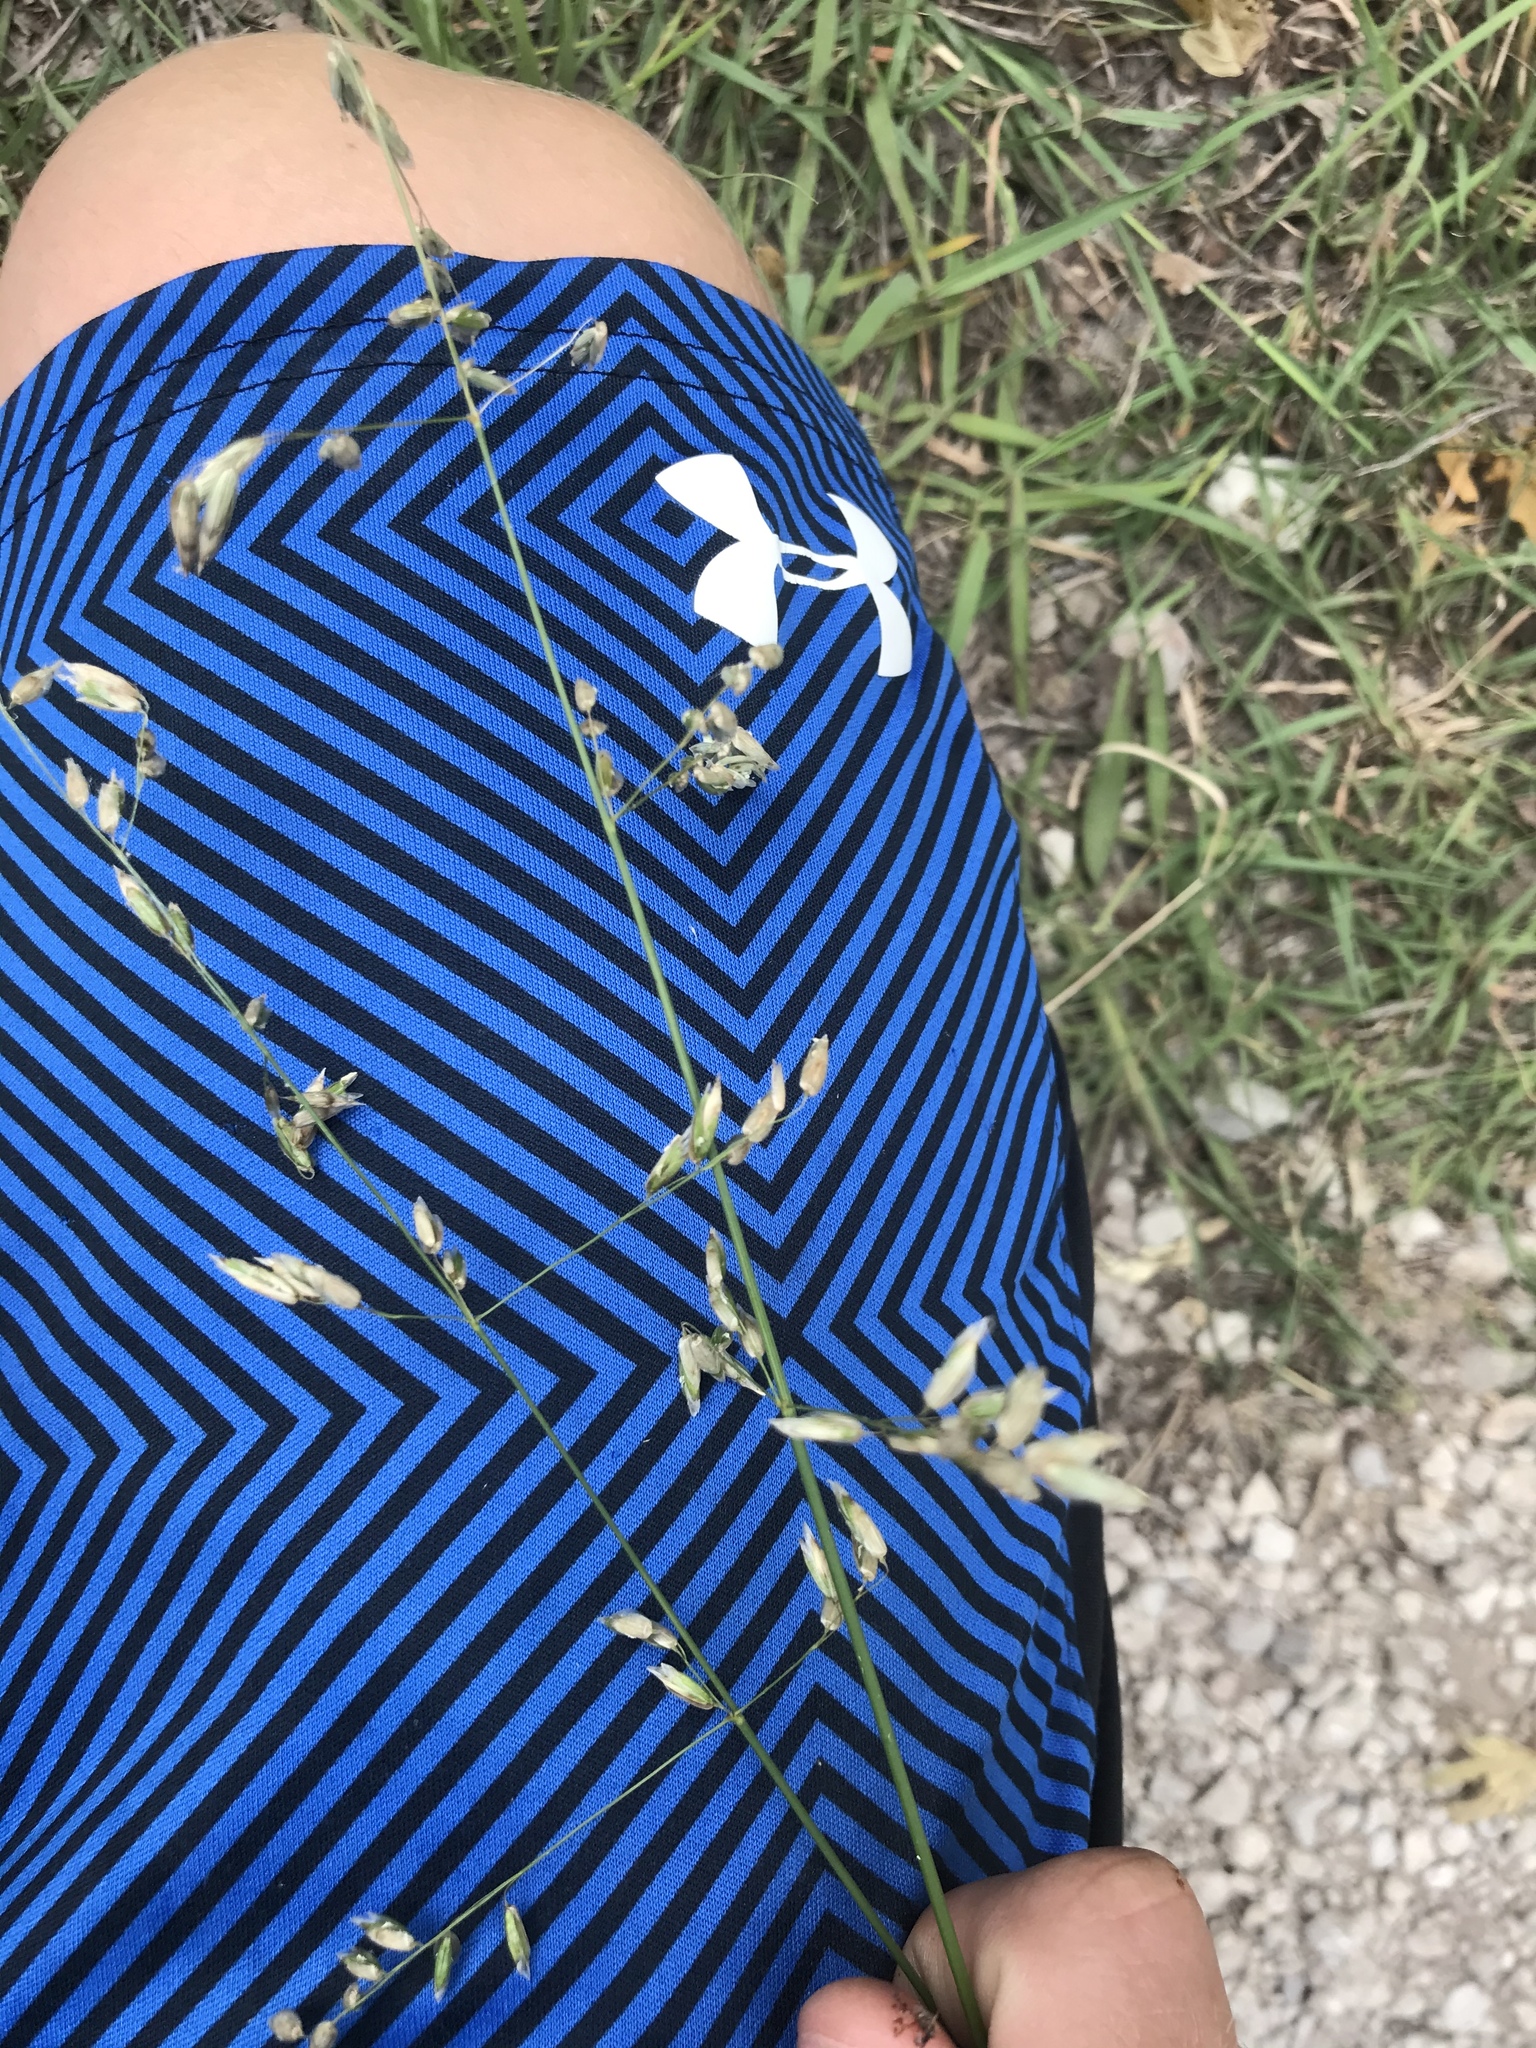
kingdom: Plantae
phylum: Tracheophyta
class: Liliopsida
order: Poales
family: Poaceae
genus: Melica
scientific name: Melica nitens
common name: Three-flower melic
